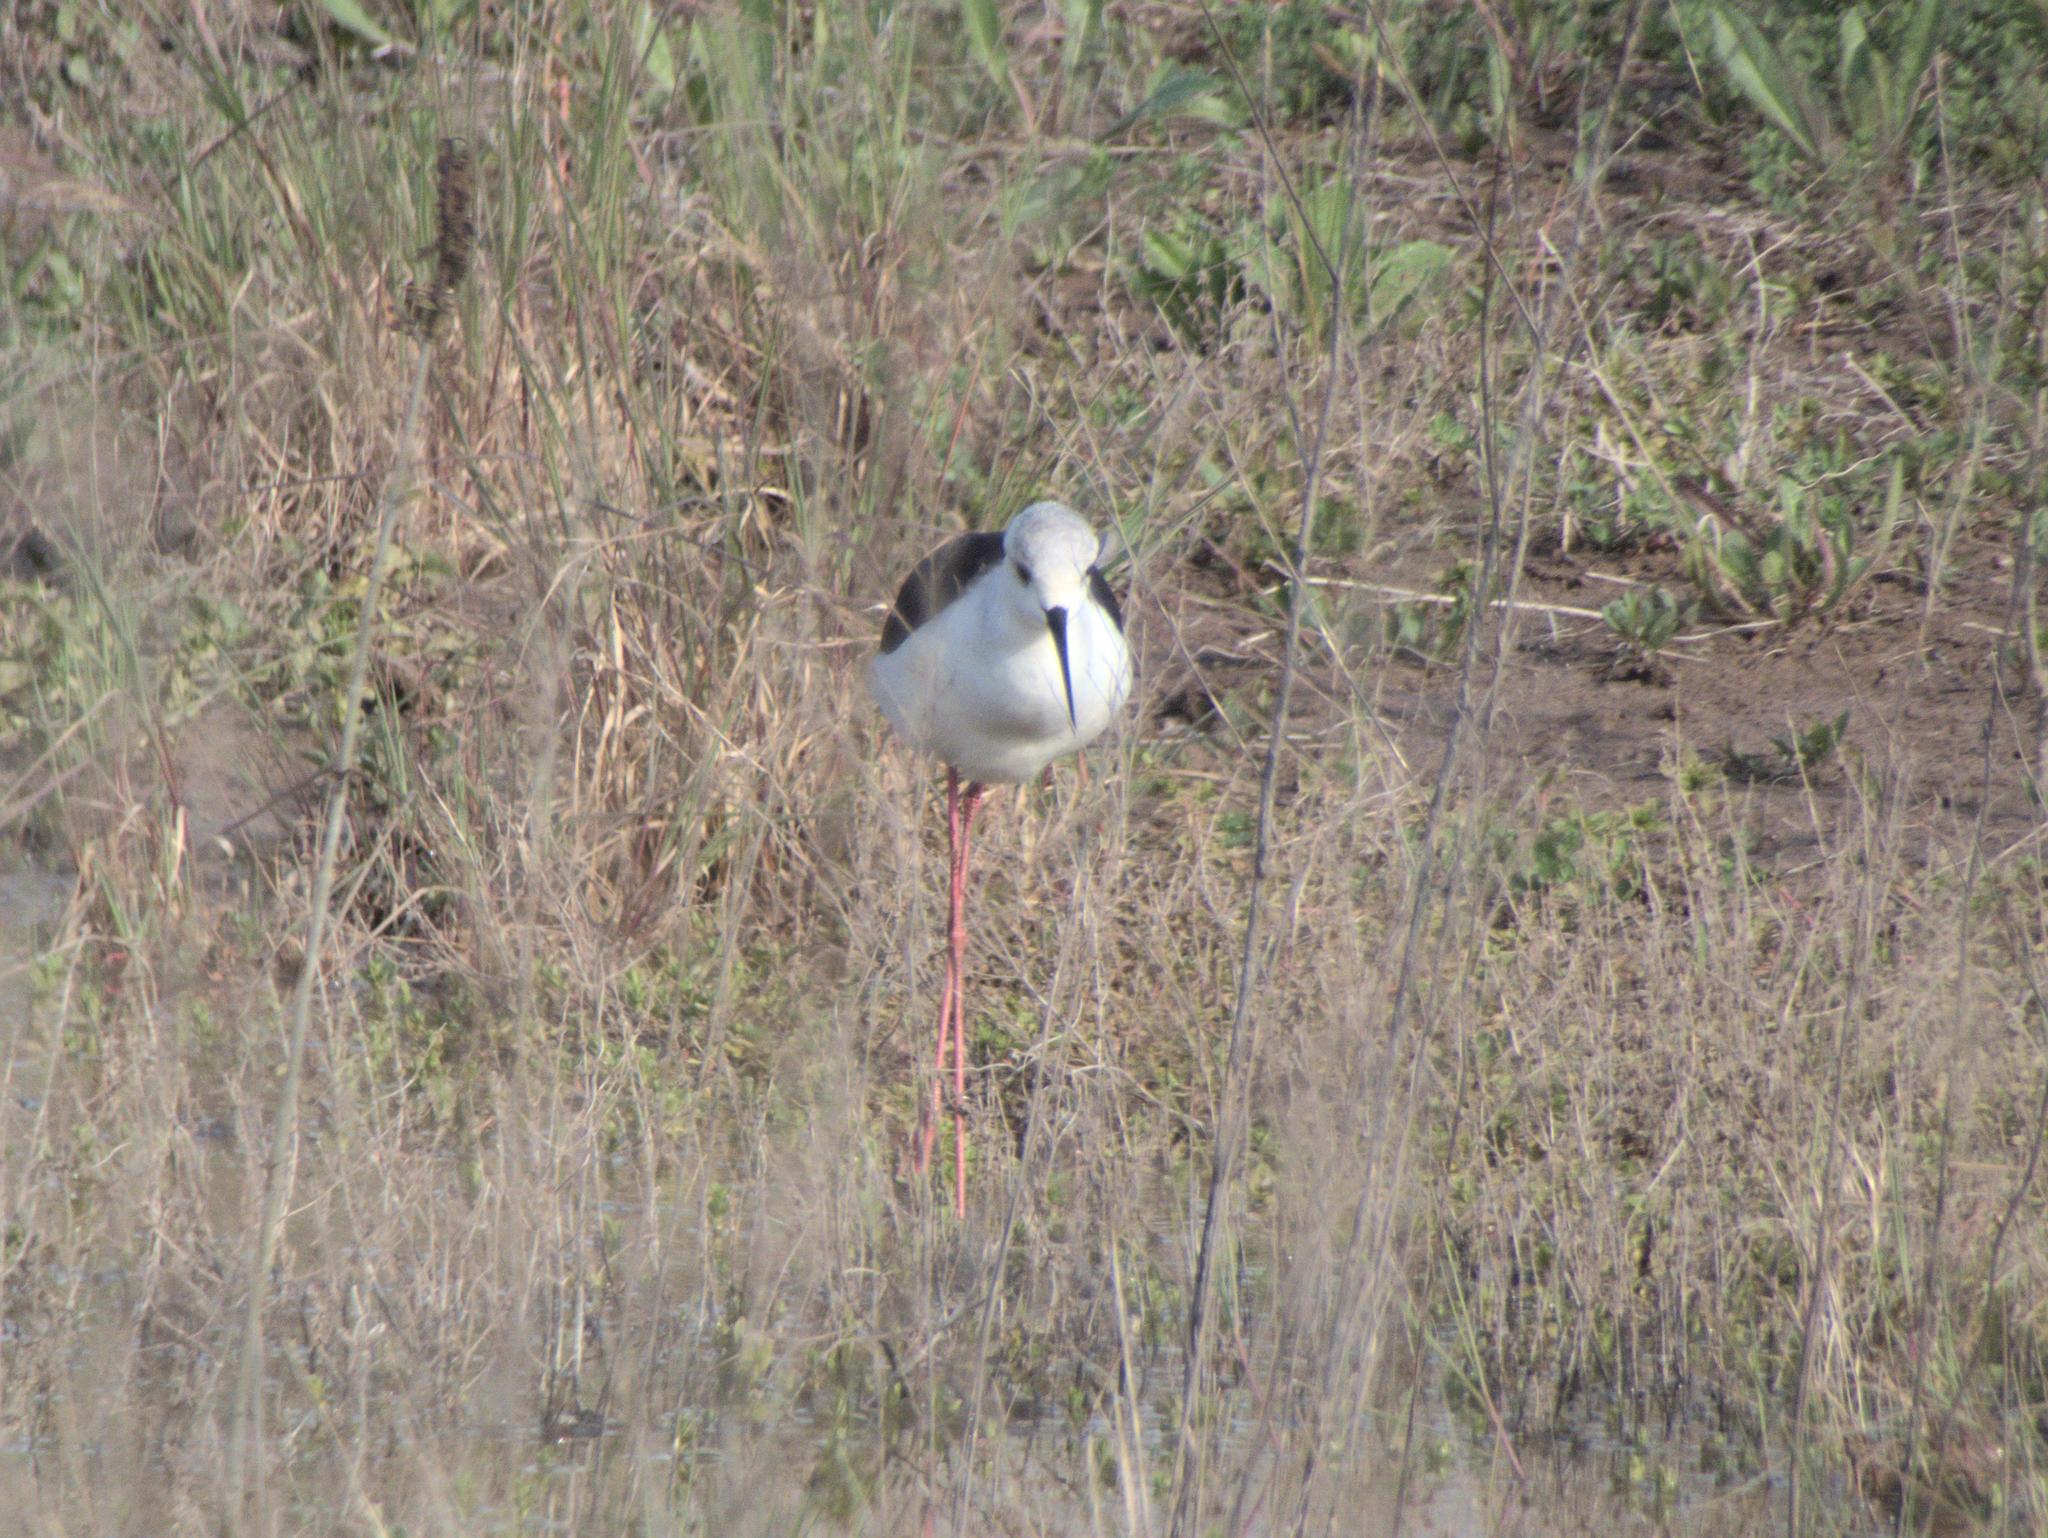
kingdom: Animalia
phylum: Chordata
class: Aves
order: Charadriiformes
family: Recurvirostridae
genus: Himantopus
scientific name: Himantopus himantopus
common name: Black-winged stilt
